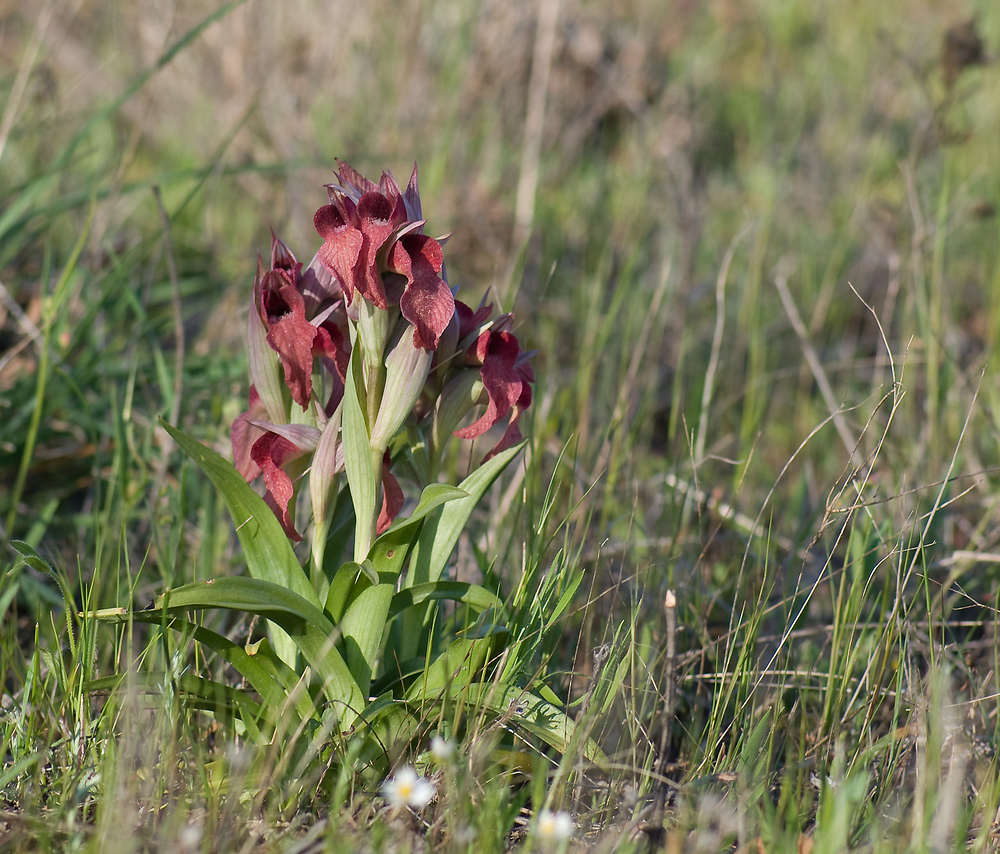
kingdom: Plantae
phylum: Tracheophyta
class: Liliopsida
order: Asparagales
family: Orchidaceae
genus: Serapias
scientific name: Serapias neglecta
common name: Neglected serapias
